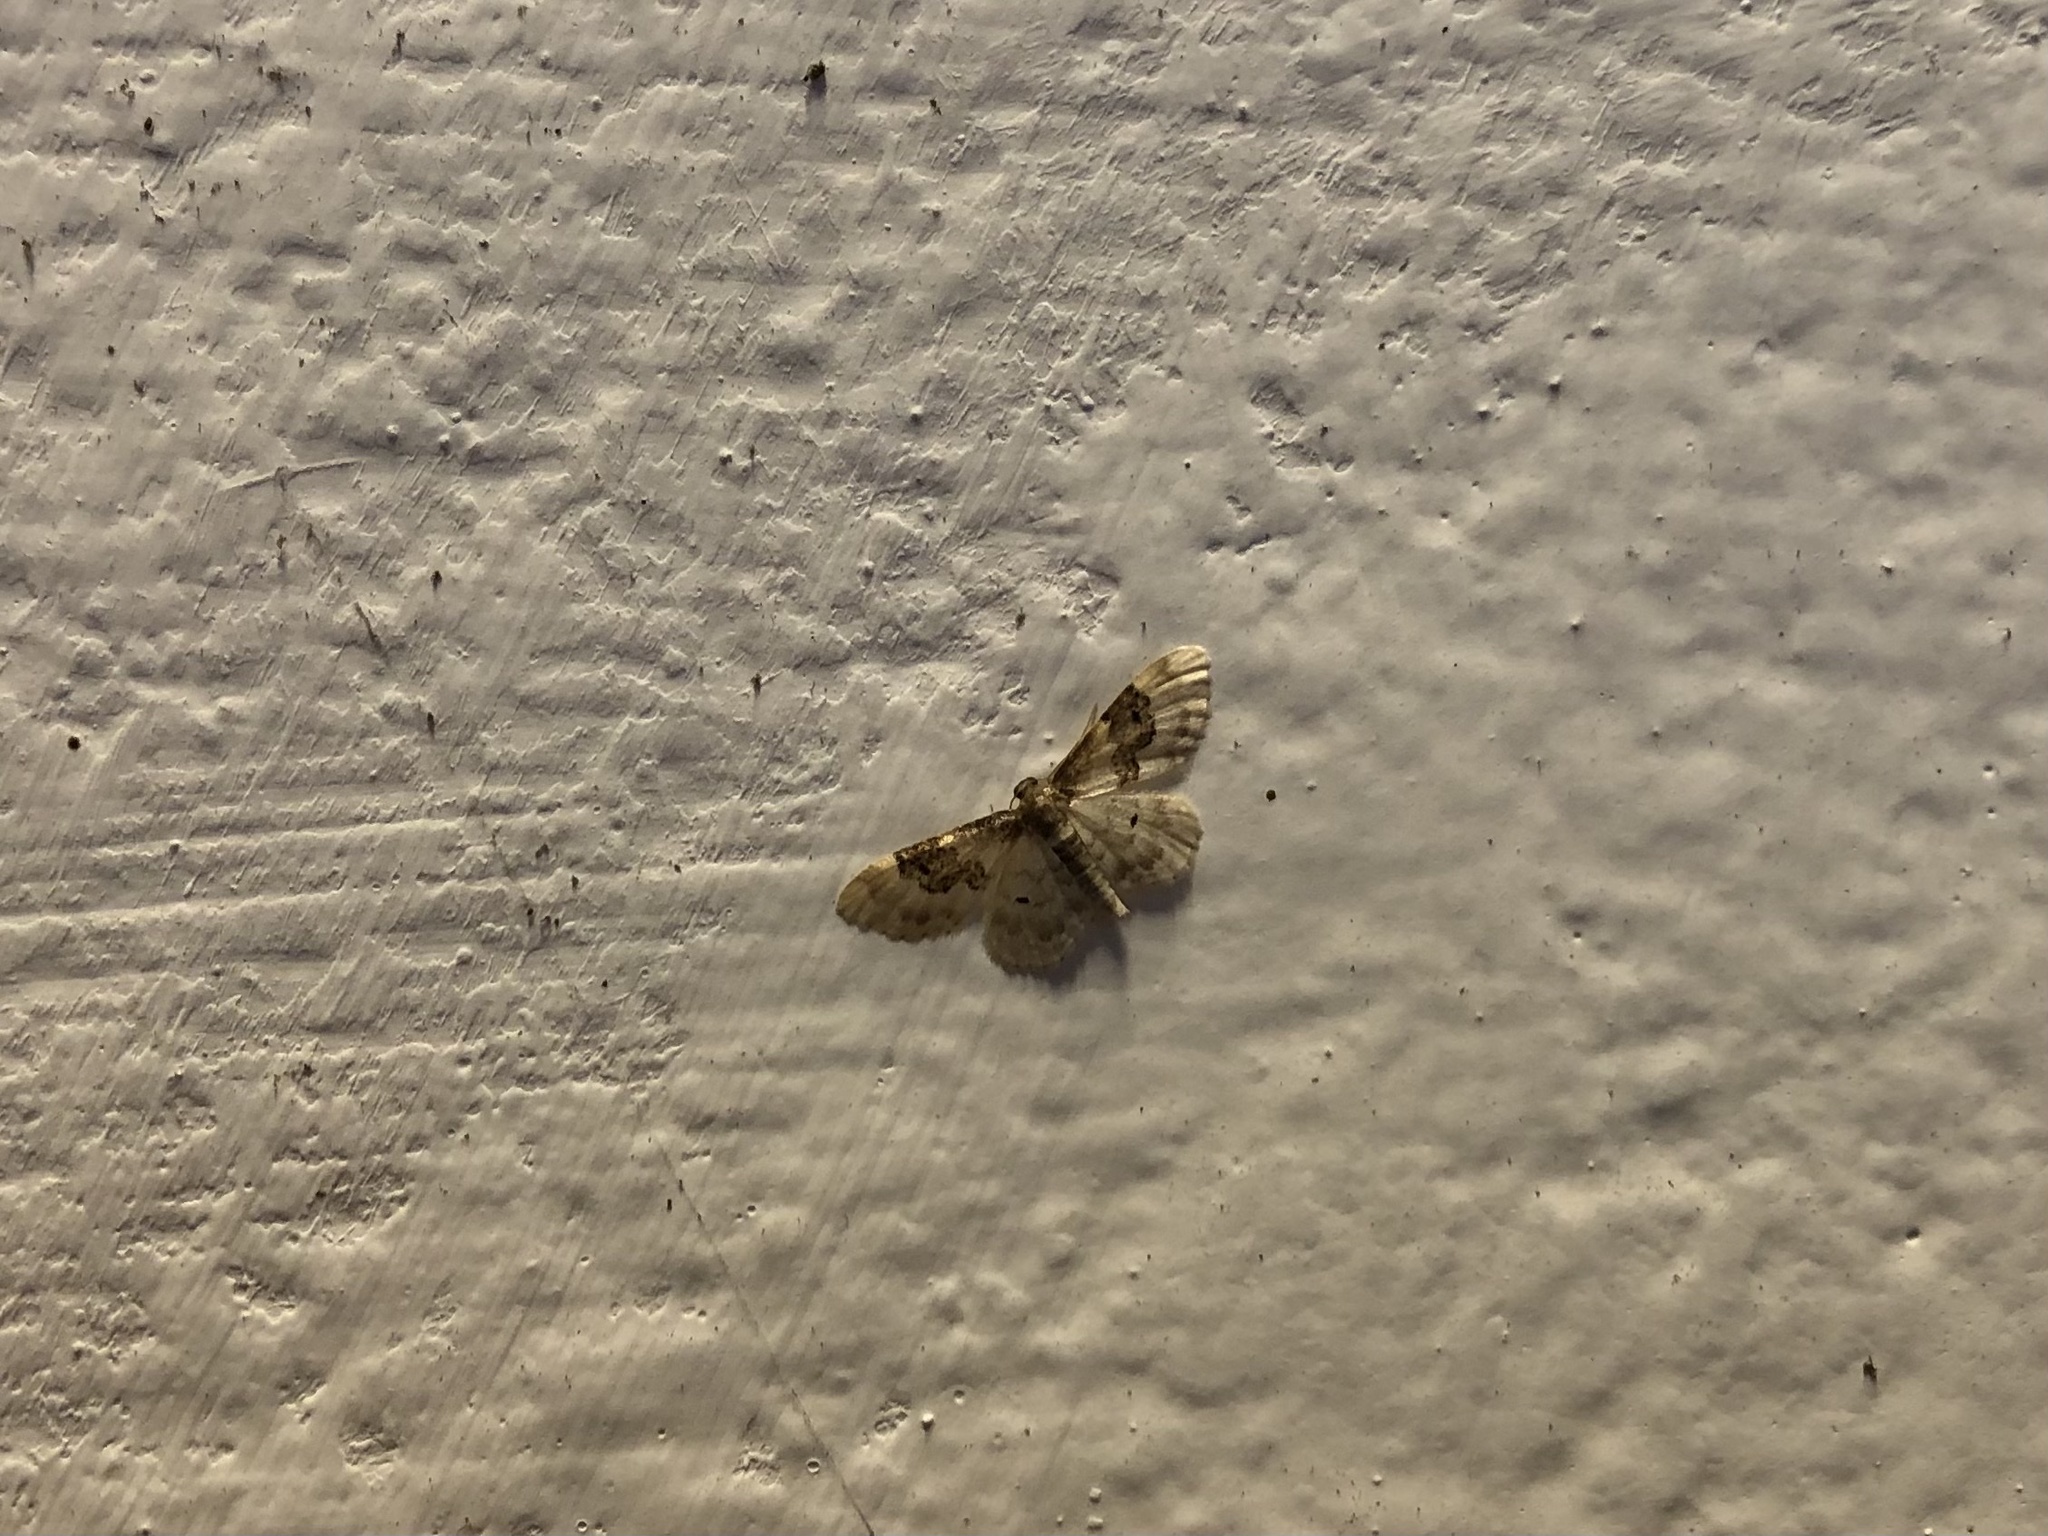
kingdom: Animalia
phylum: Arthropoda
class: Insecta
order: Lepidoptera
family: Geometridae
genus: Idaea
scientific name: Idaea rusticata
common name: Least carpet
